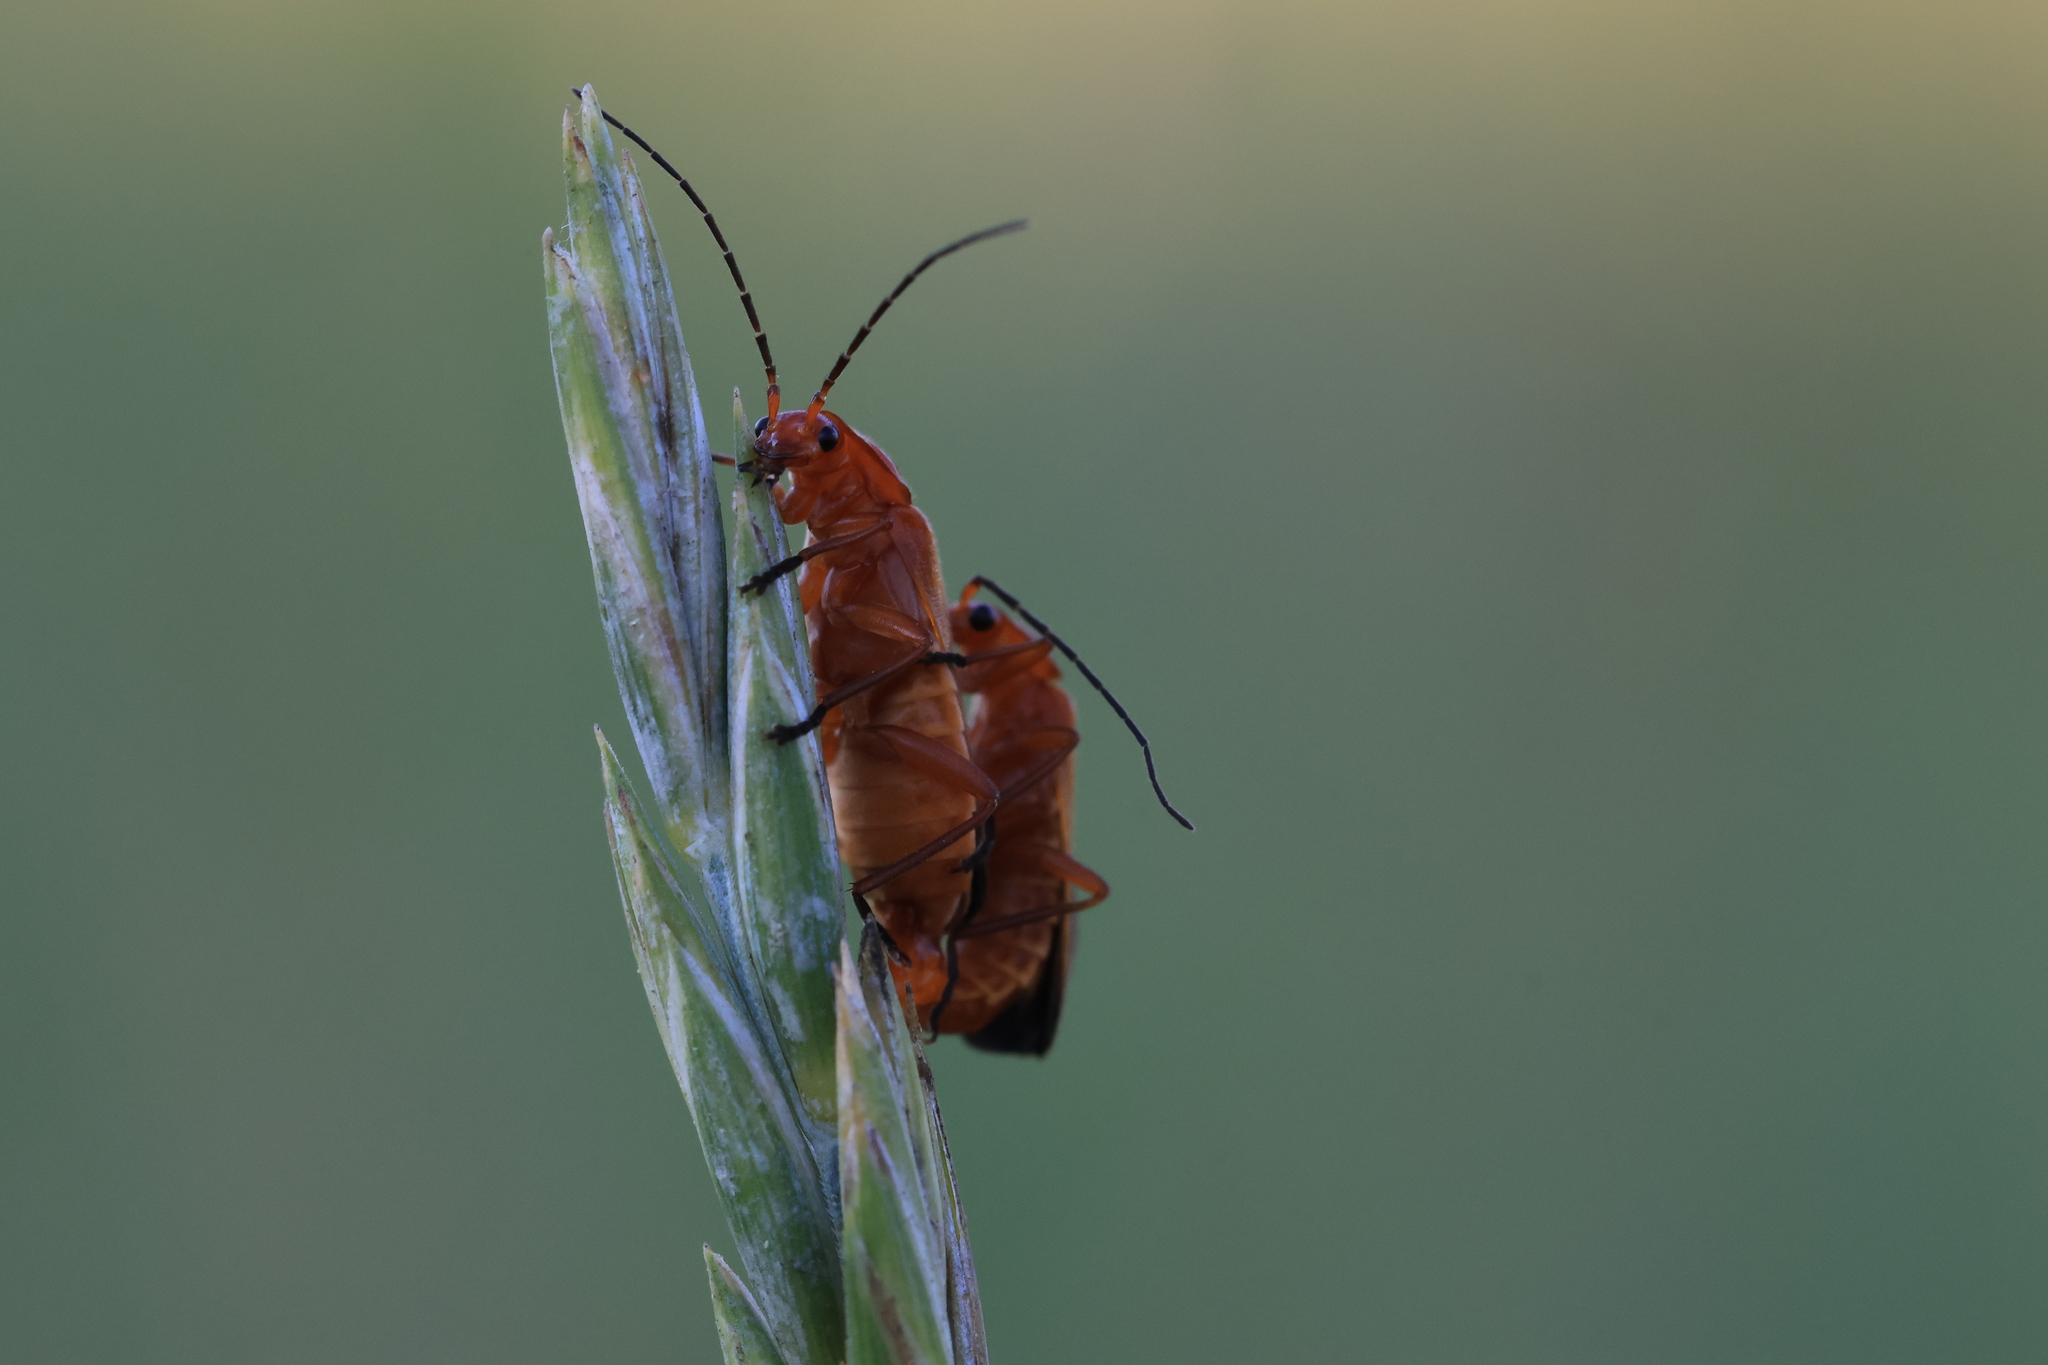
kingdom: Animalia
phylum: Arthropoda
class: Insecta
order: Coleoptera
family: Cantharidae
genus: Rhagonycha
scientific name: Rhagonycha fulva
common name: Common red soldier beetle
